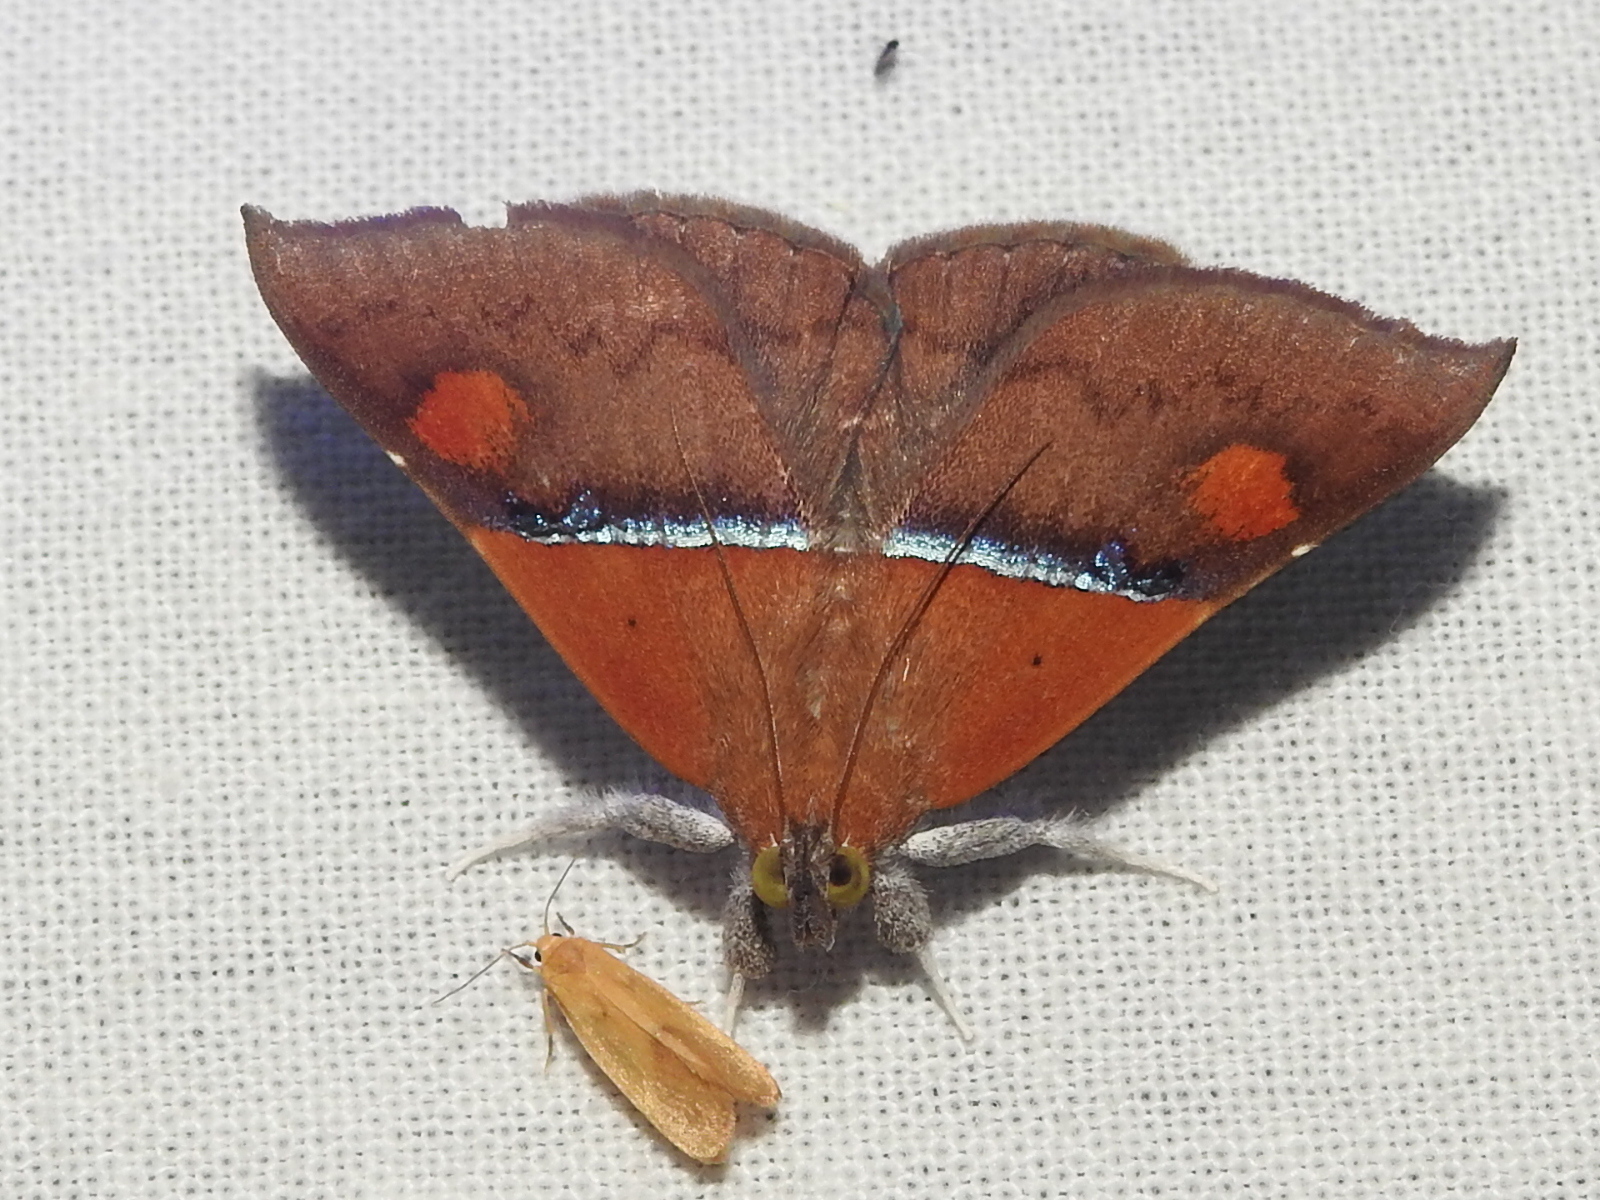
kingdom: Animalia
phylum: Arthropoda
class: Insecta
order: Lepidoptera
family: Erebidae
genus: Sympis
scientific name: Sympis rufibasis
